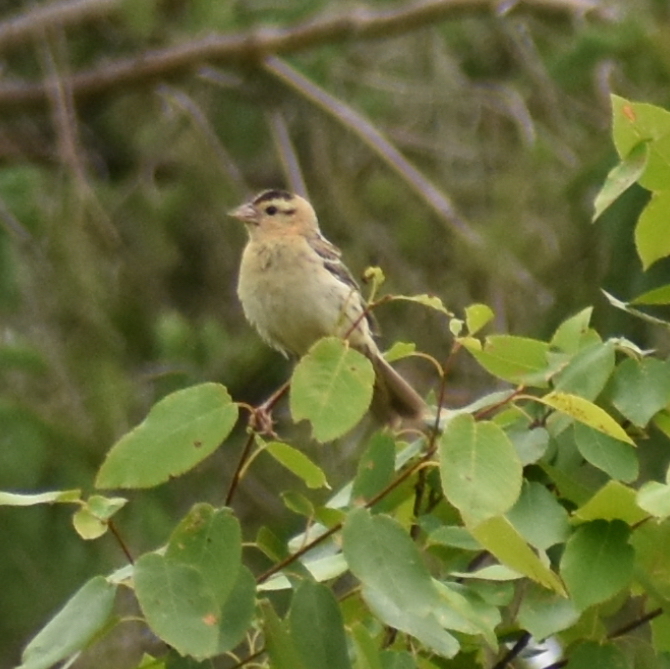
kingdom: Animalia
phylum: Chordata
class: Aves
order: Passeriformes
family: Icteridae
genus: Dolichonyx
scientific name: Dolichonyx oryzivorus
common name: Bobolink
